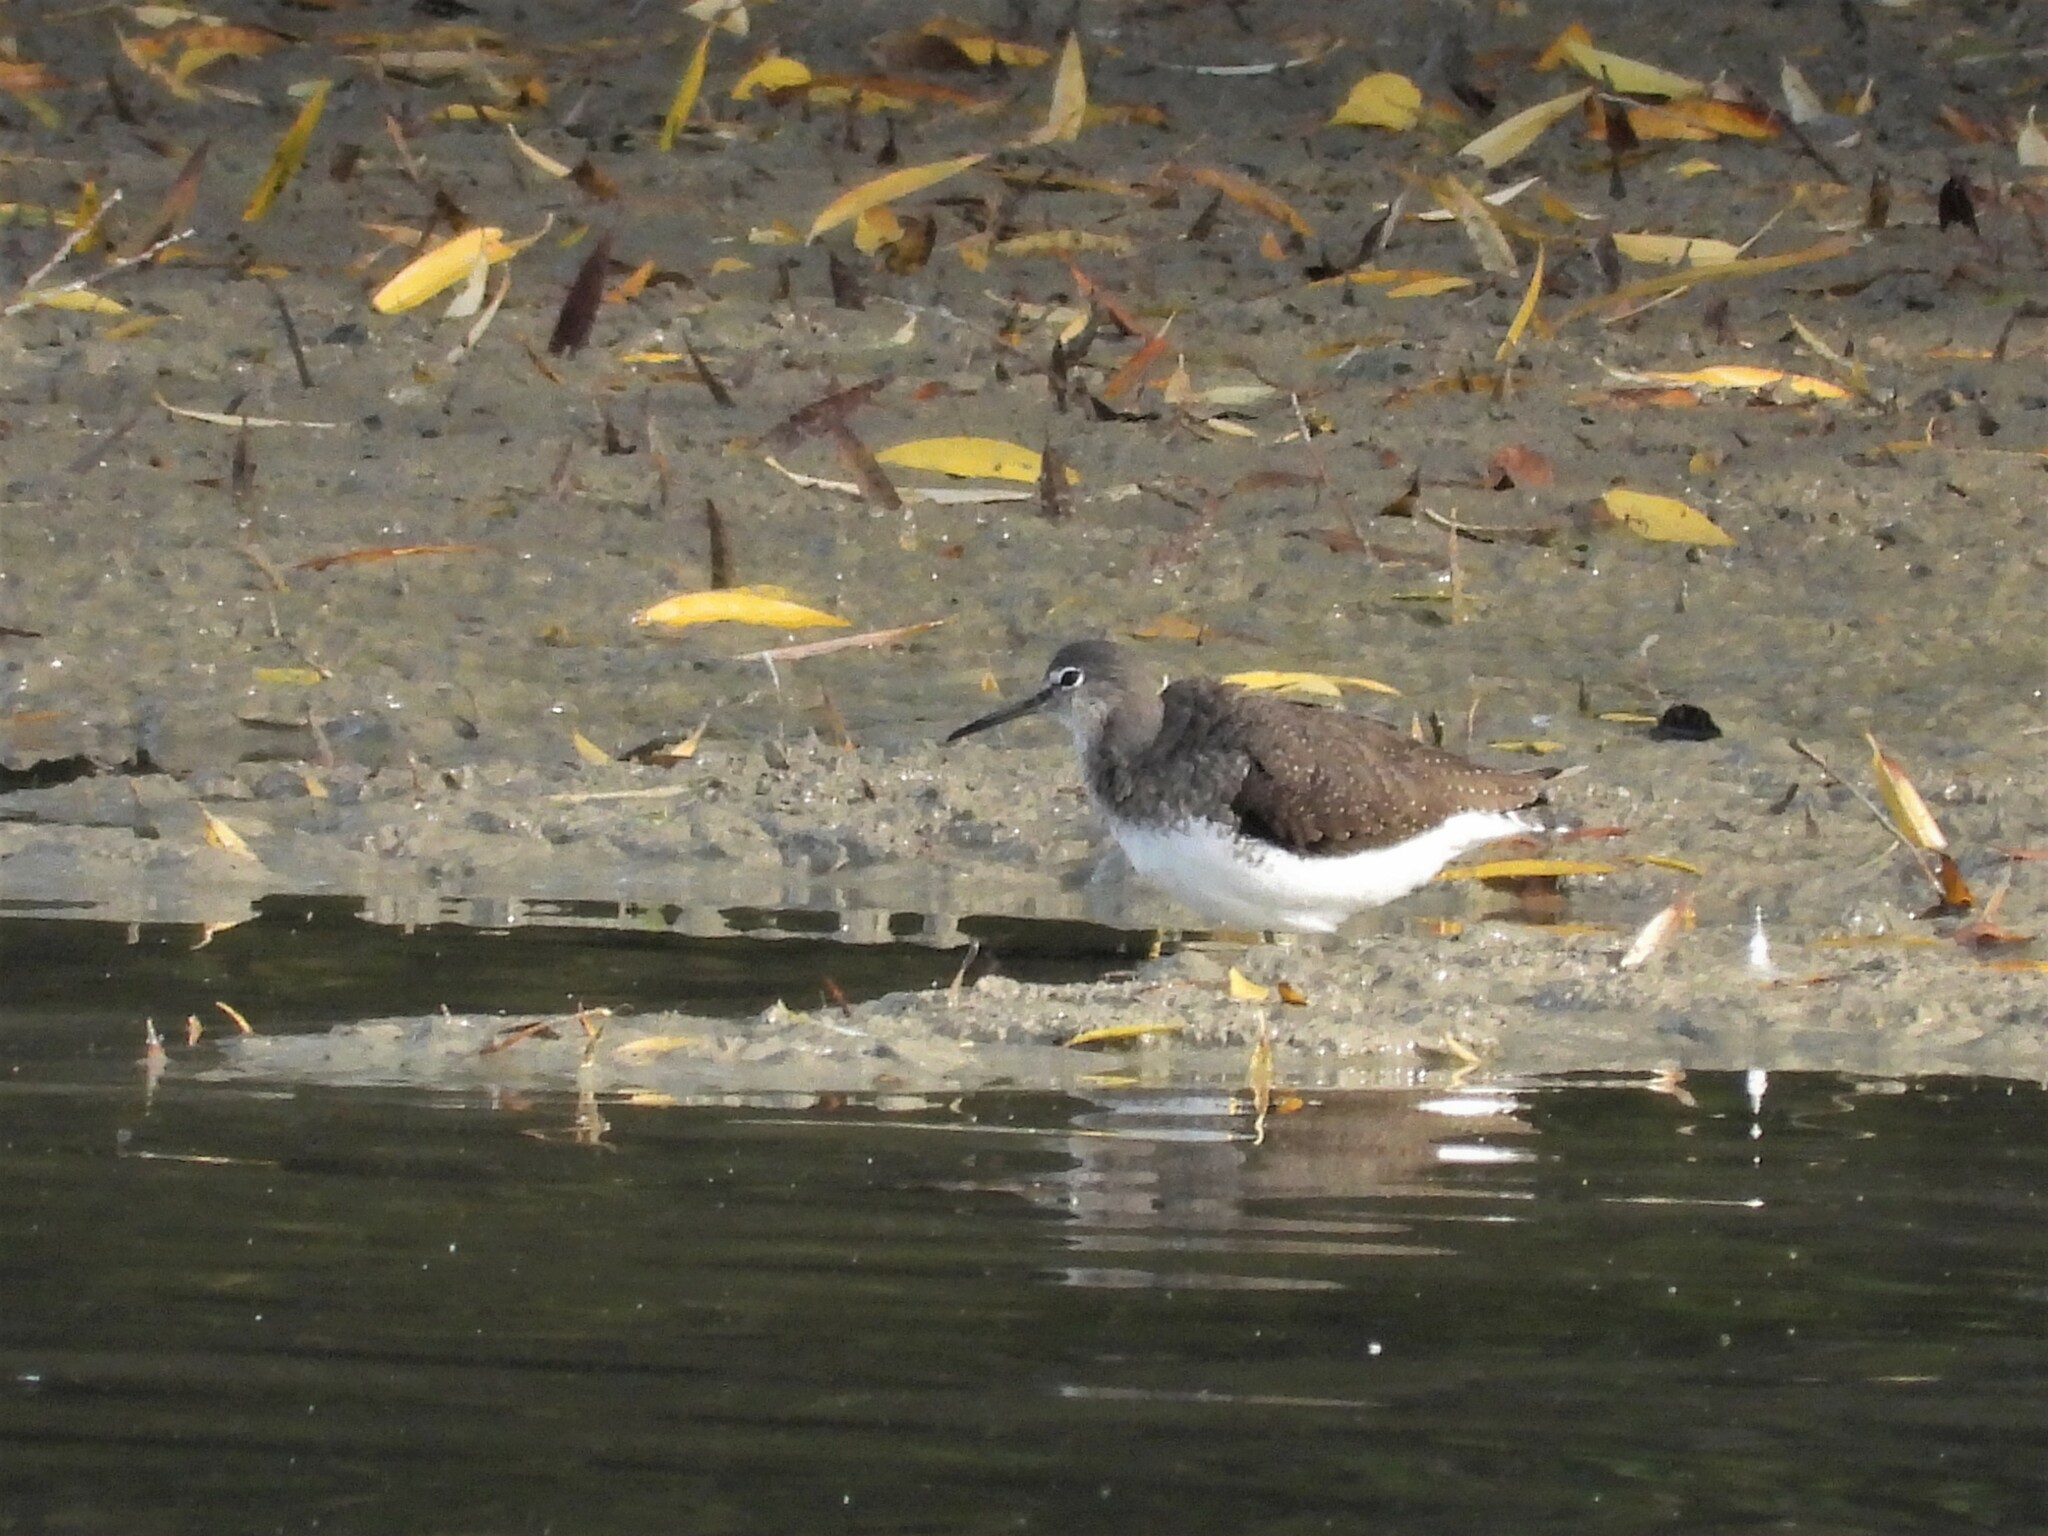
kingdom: Animalia
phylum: Chordata
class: Aves
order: Charadriiformes
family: Scolopacidae
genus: Tringa
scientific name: Tringa ochropus
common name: Green sandpiper
